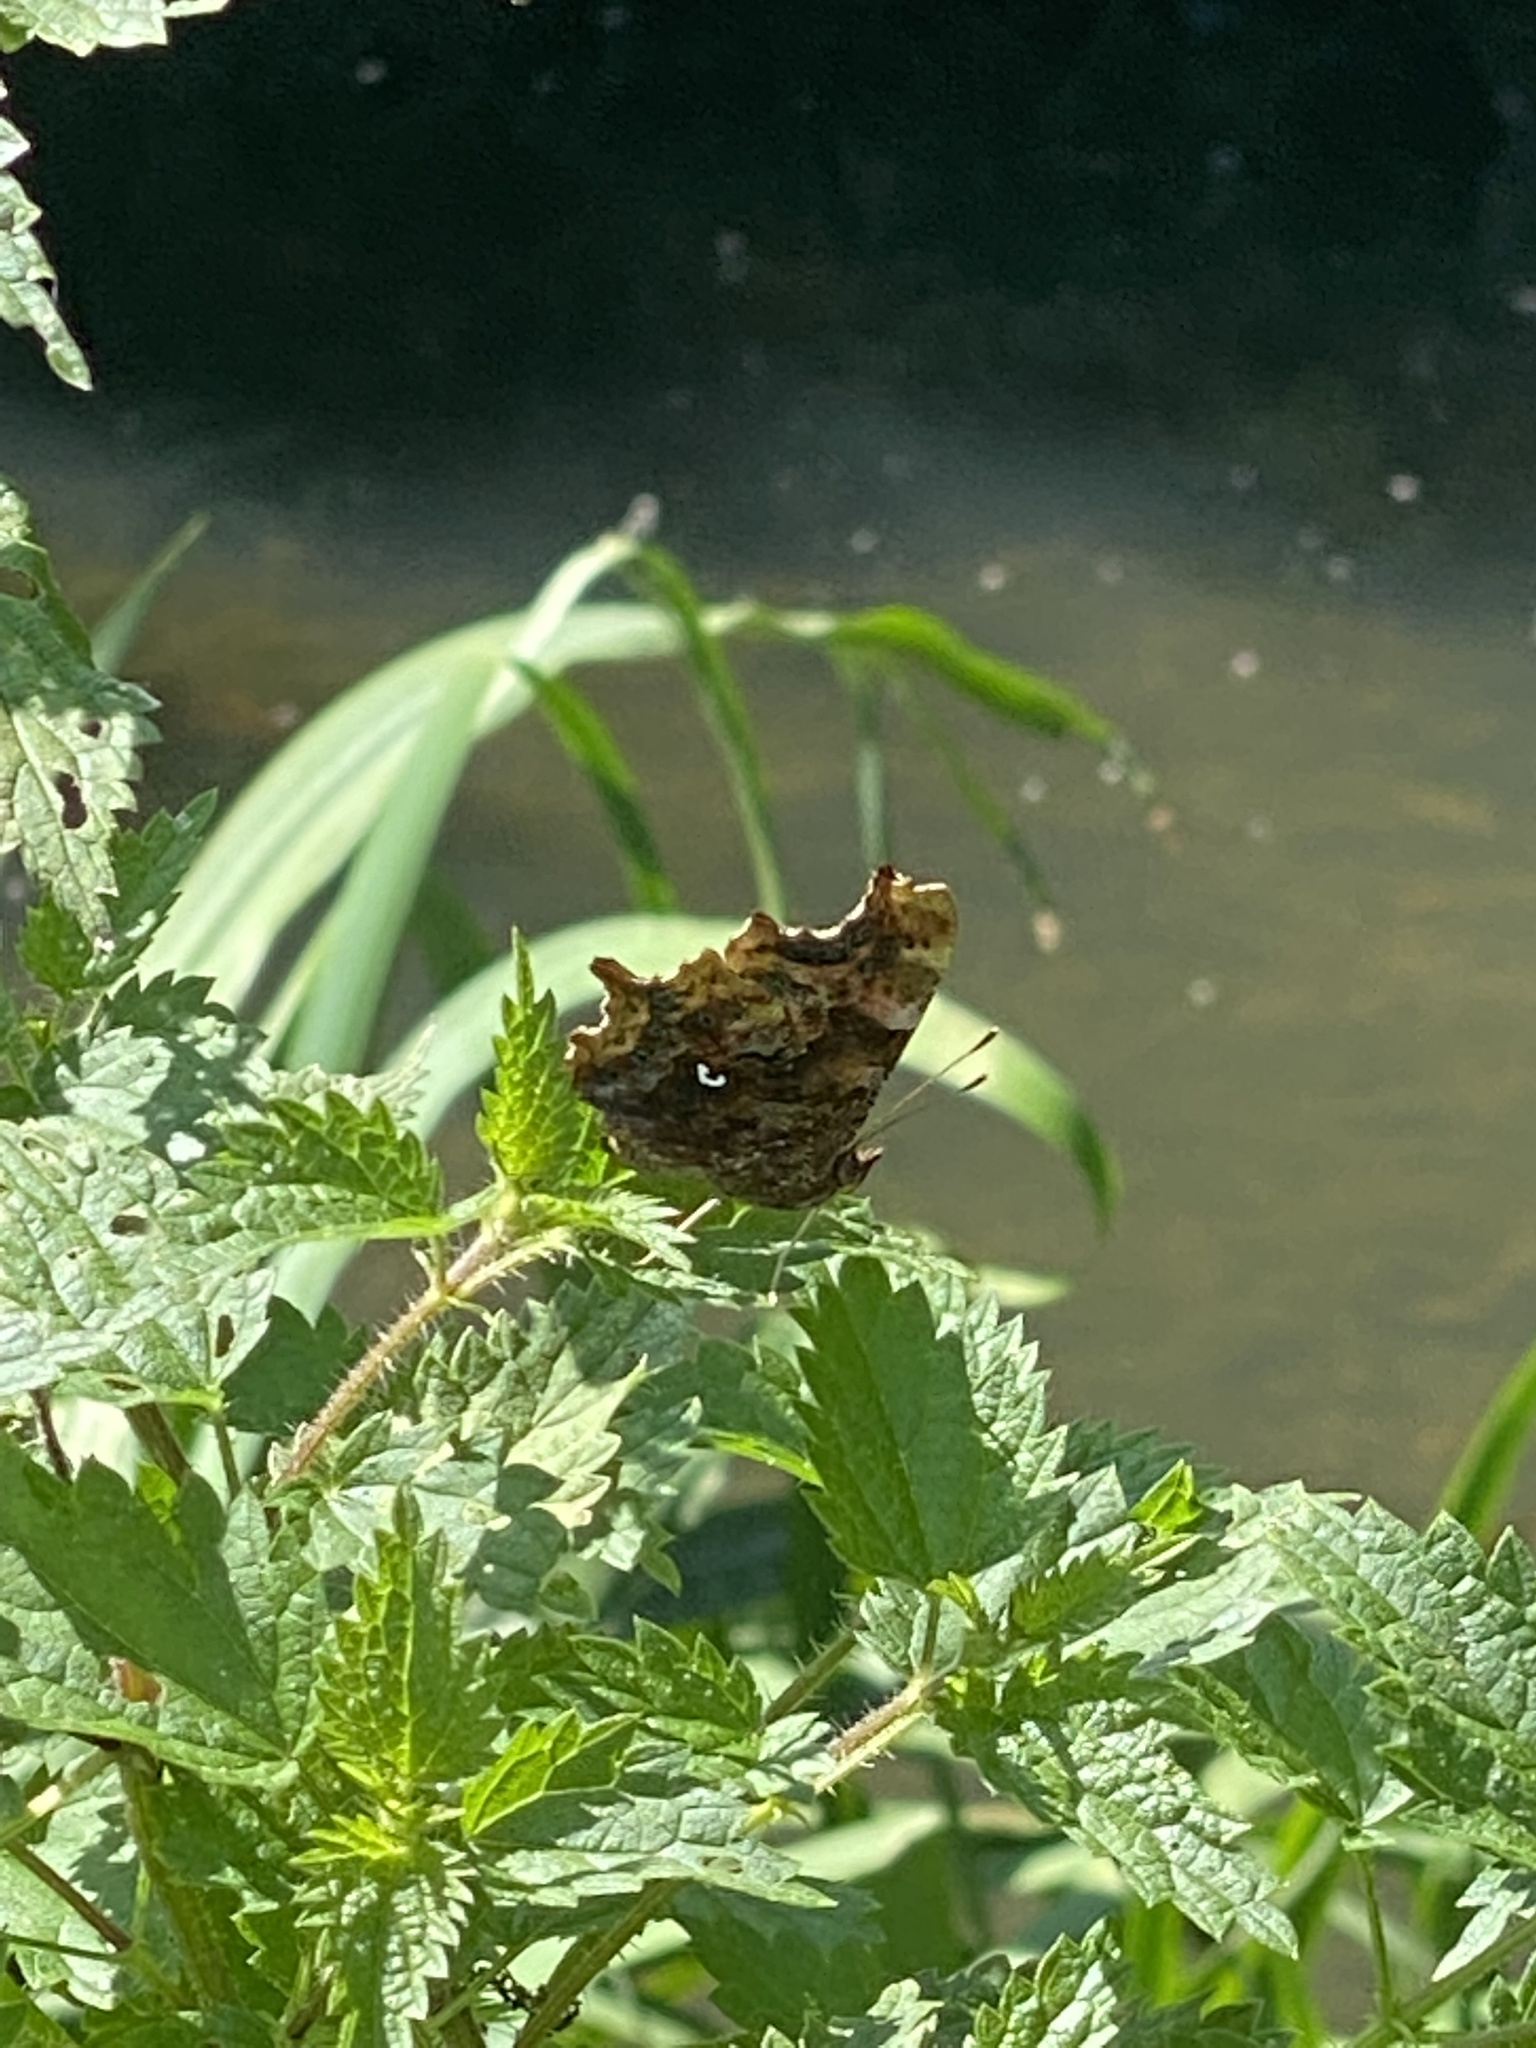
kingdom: Animalia
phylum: Arthropoda
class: Insecta
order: Lepidoptera
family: Nymphalidae
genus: Polygonia
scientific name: Polygonia c-album
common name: Comma
